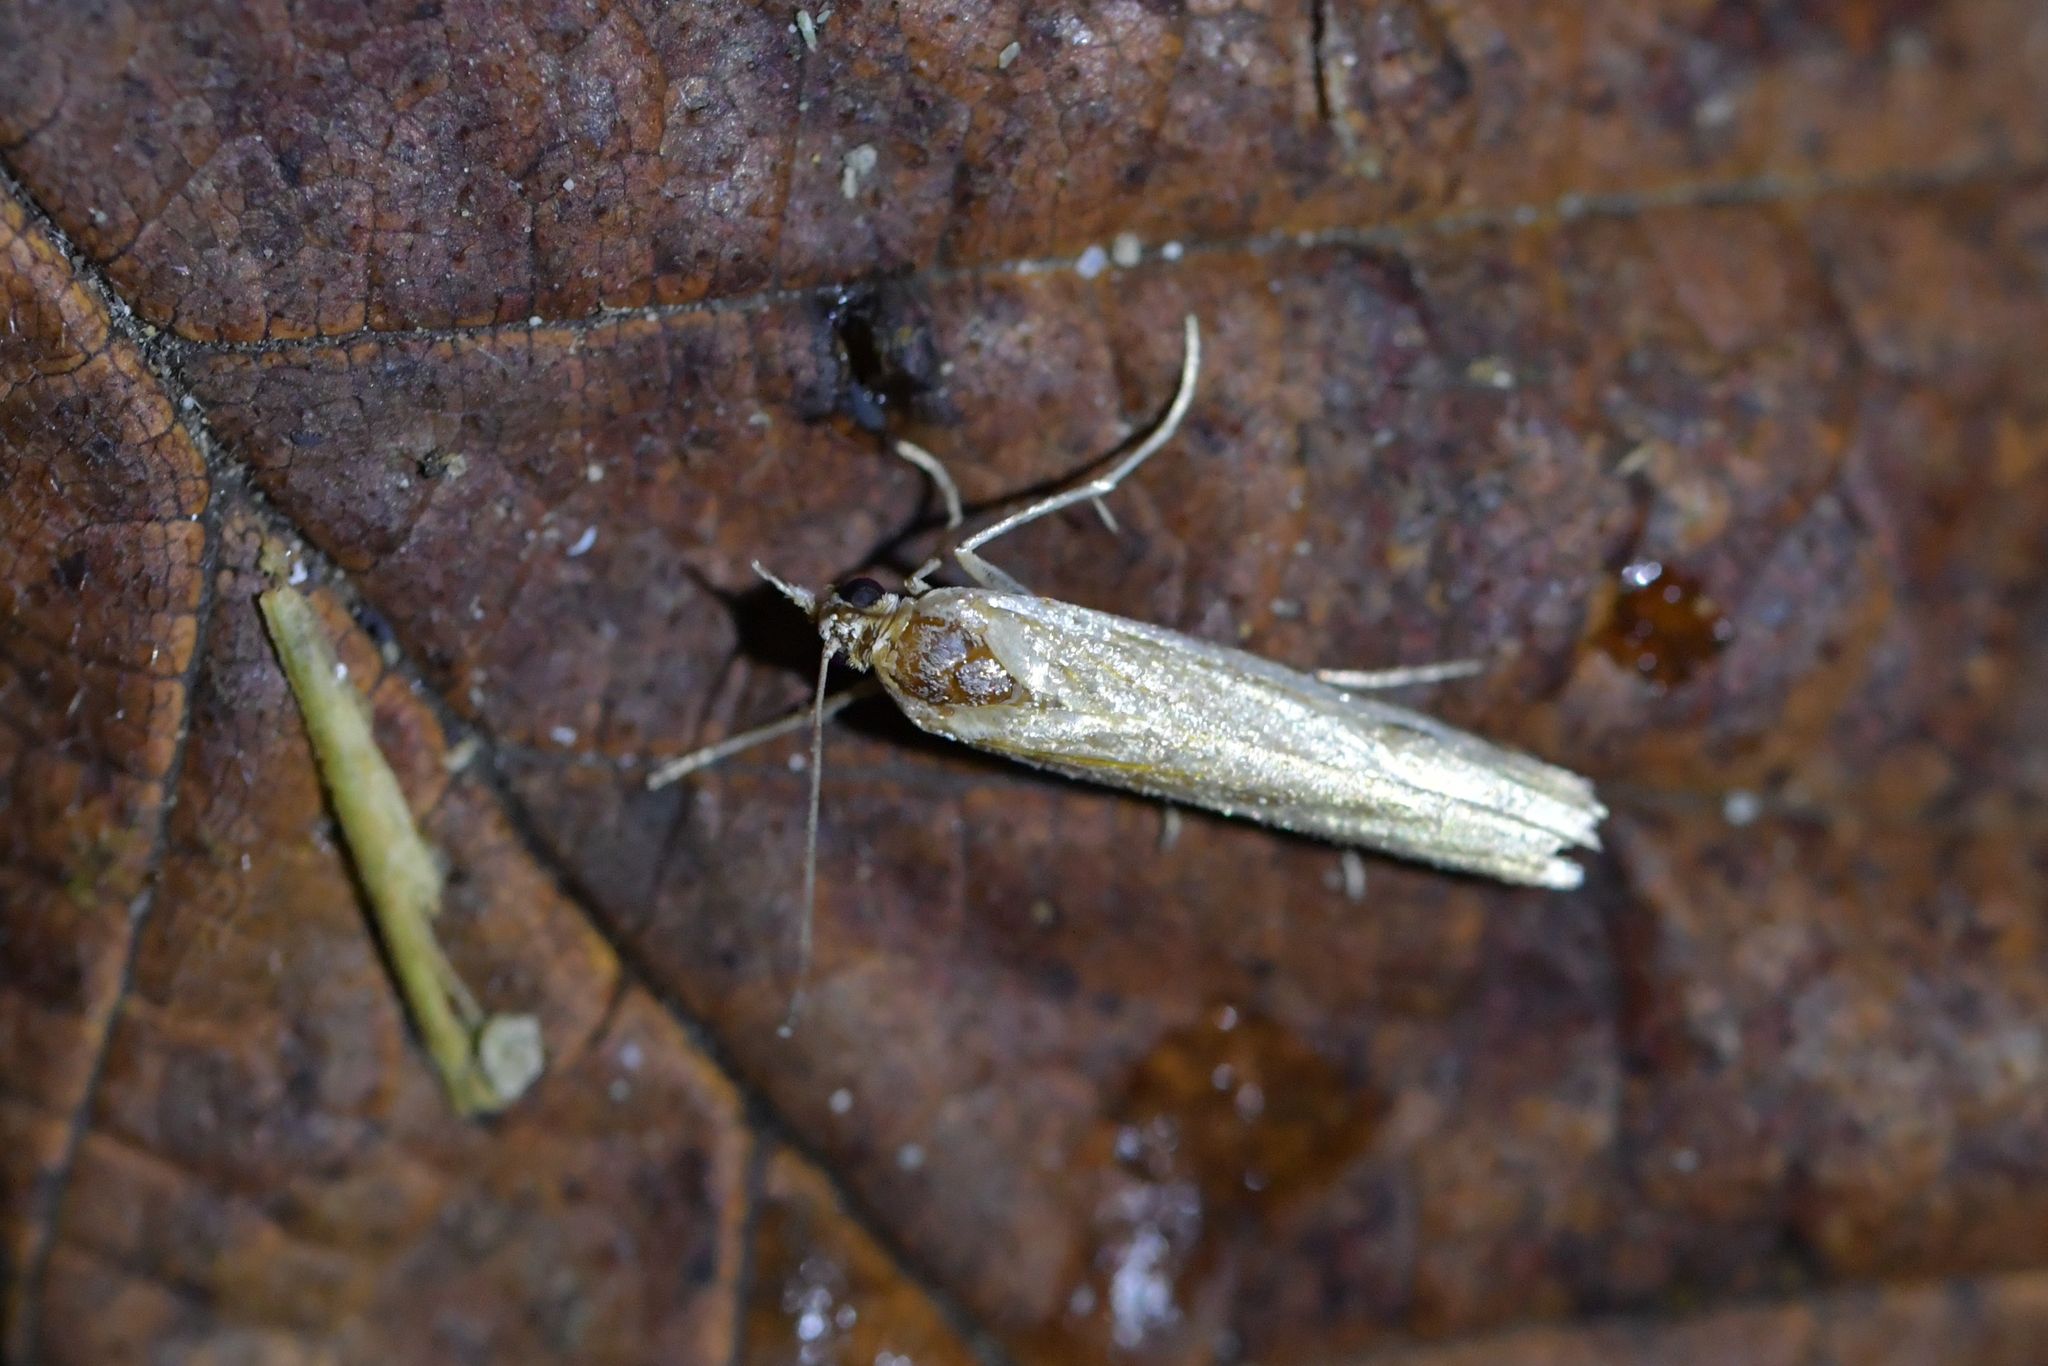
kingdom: Animalia
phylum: Arthropoda
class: Insecta
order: Lepidoptera
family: Crambidae
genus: Orocrambus
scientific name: Orocrambus flexuosellus
